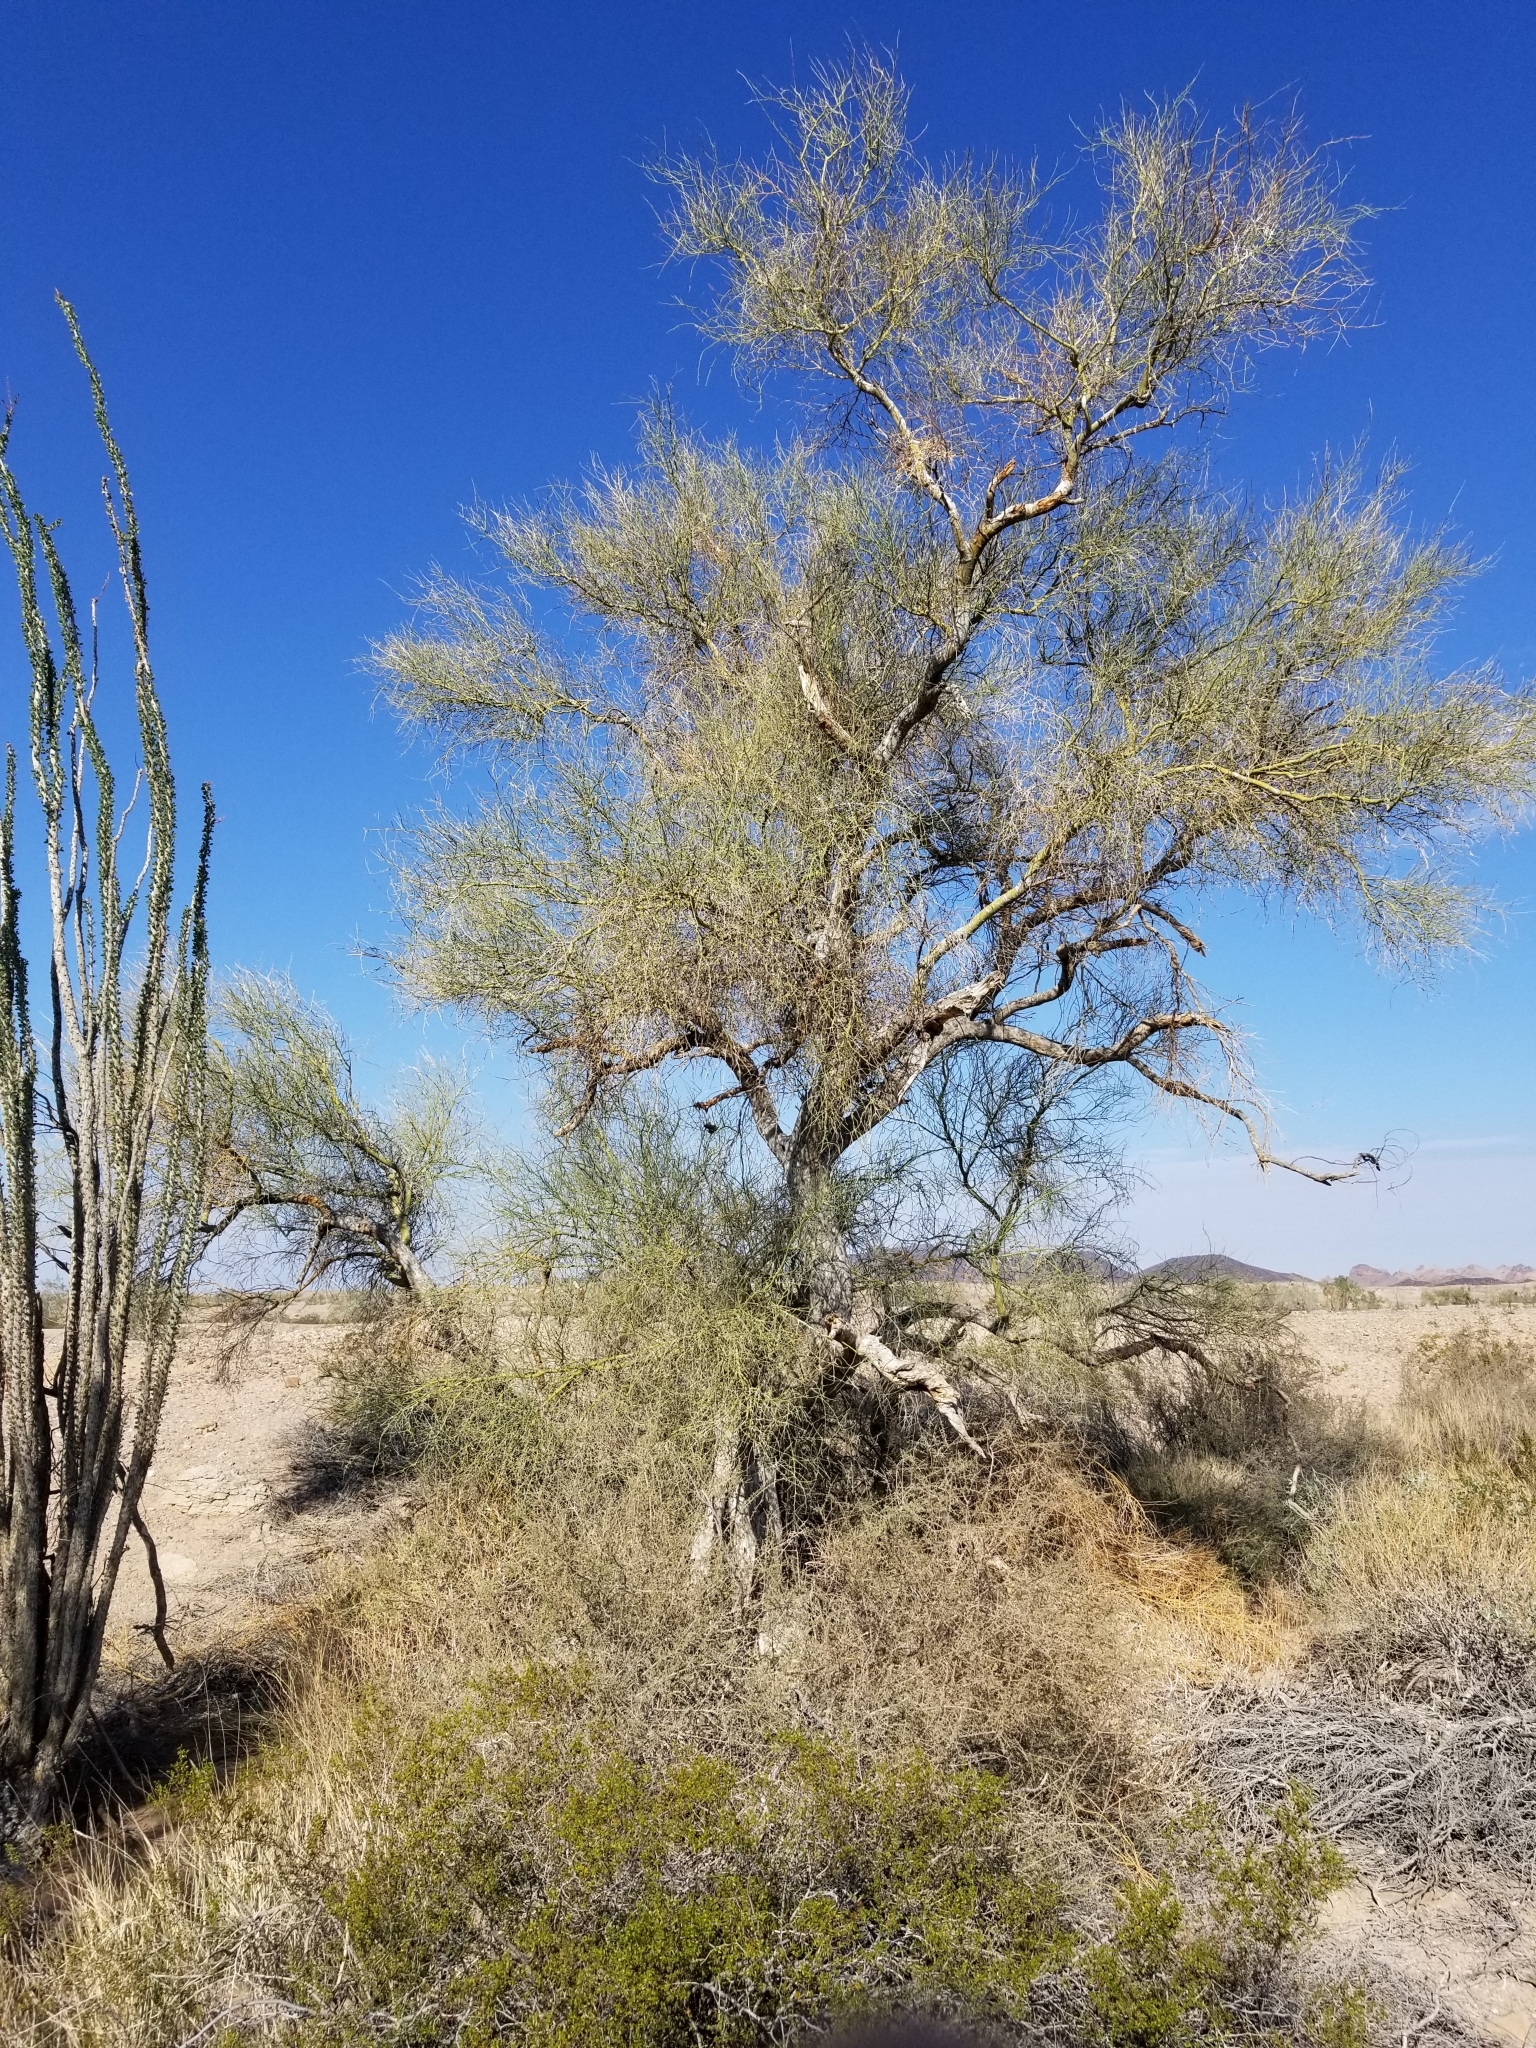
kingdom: Plantae
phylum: Tracheophyta
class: Magnoliopsida
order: Fabales
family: Fabaceae
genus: Parkinsonia
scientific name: Parkinsonia florida
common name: Blue paloverde
